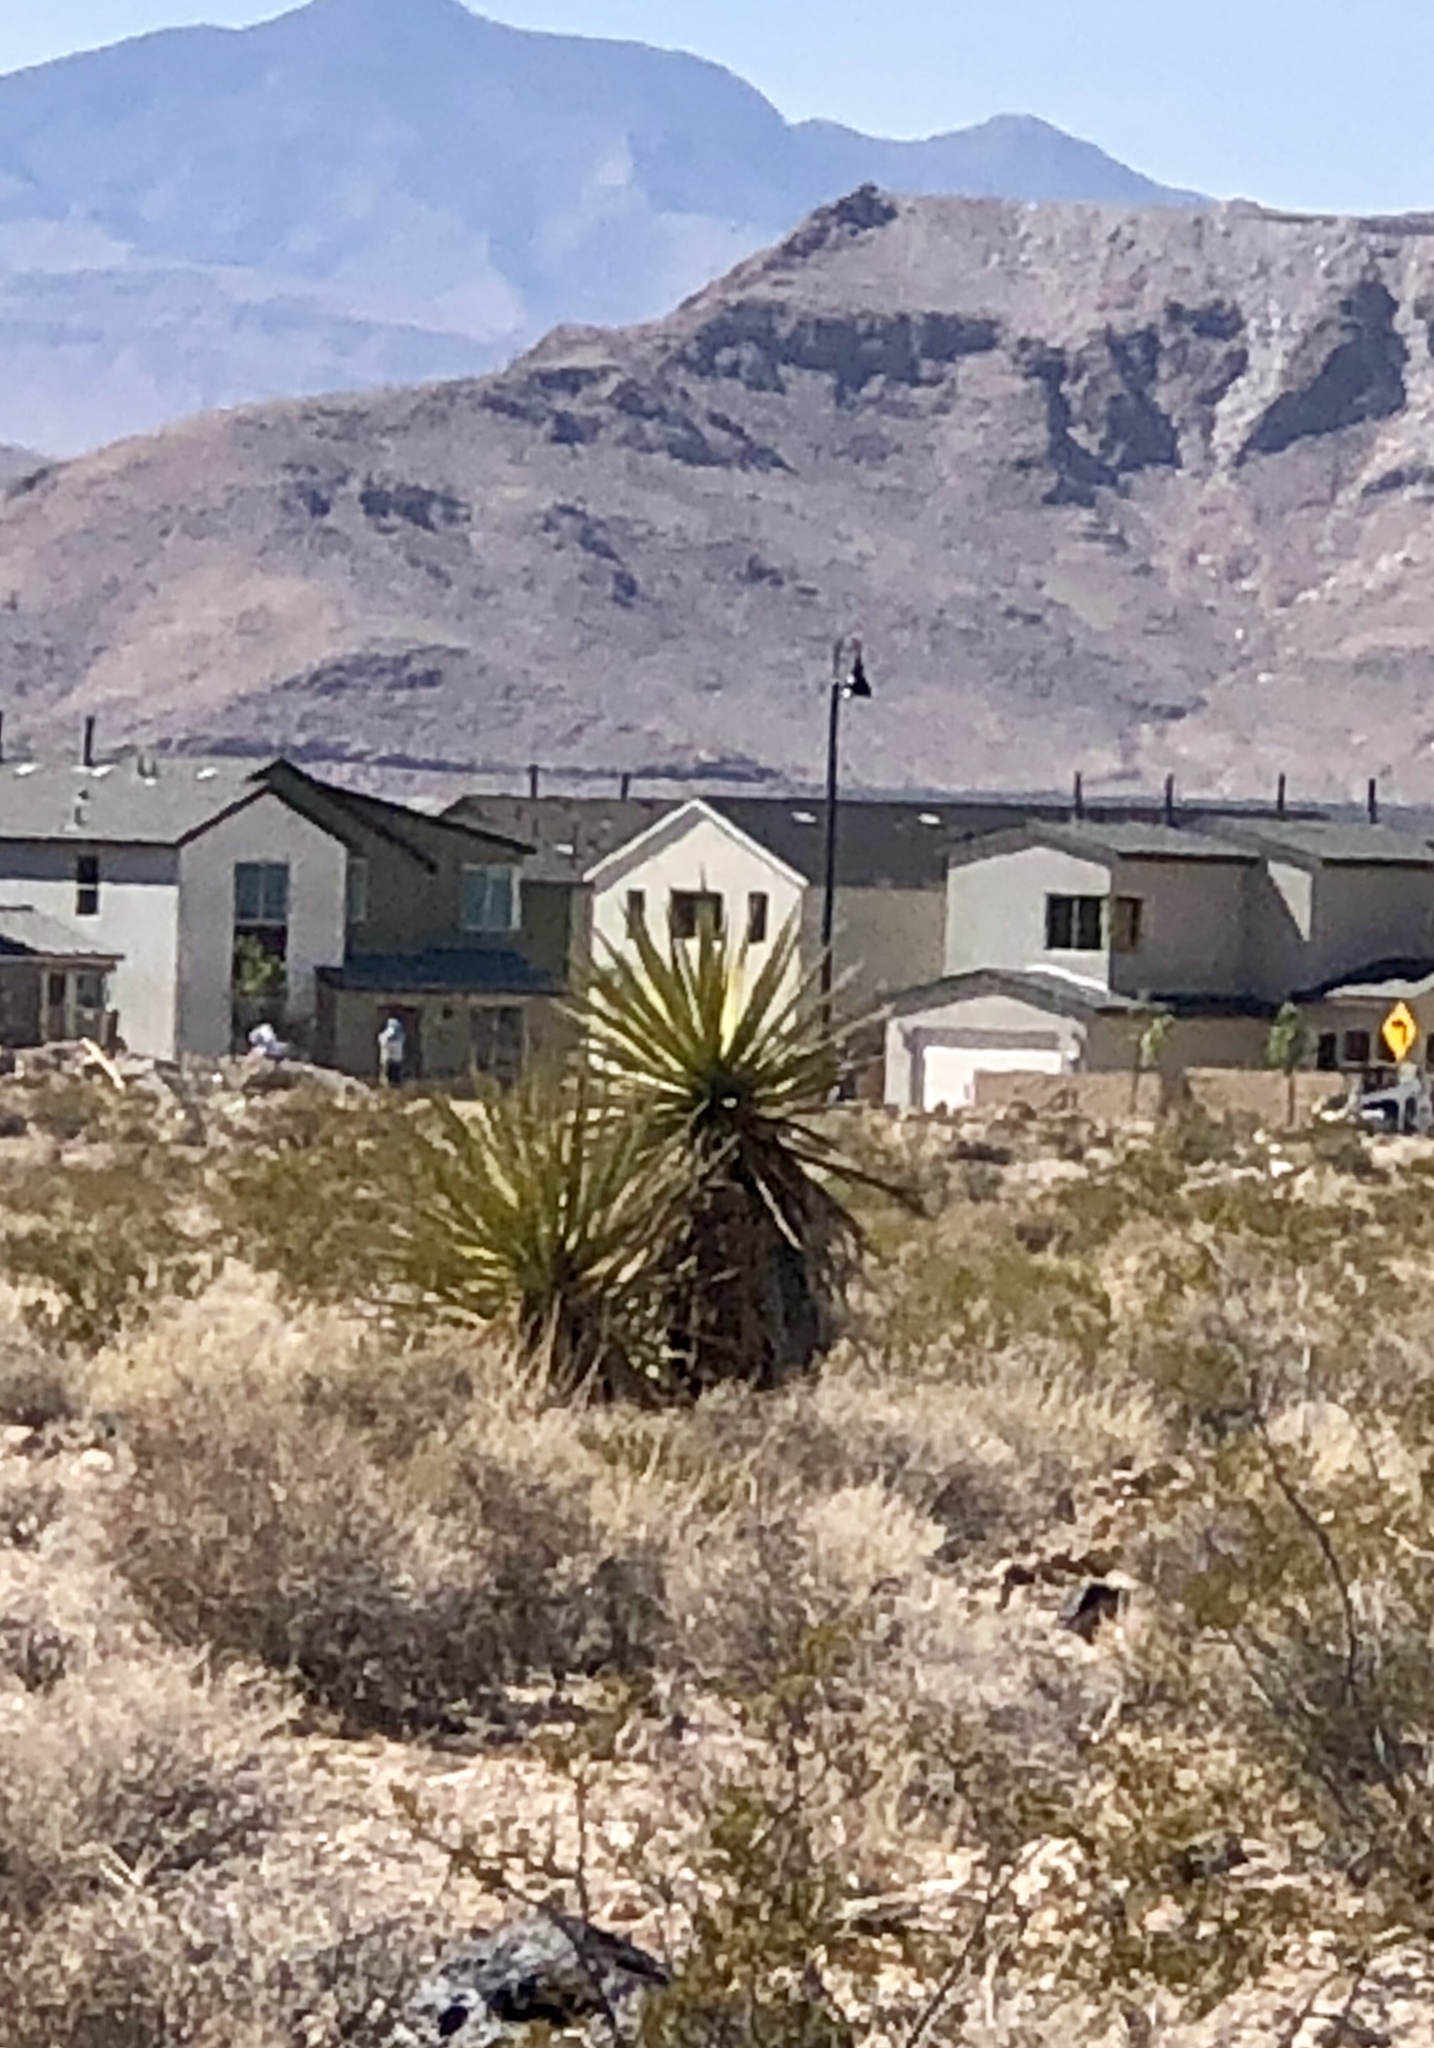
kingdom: Plantae
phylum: Tracheophyta
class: Liliopsida
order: Asparagales
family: Asparagaceae
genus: Yucca
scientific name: Yucca schidigera
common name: Mojave yucca
